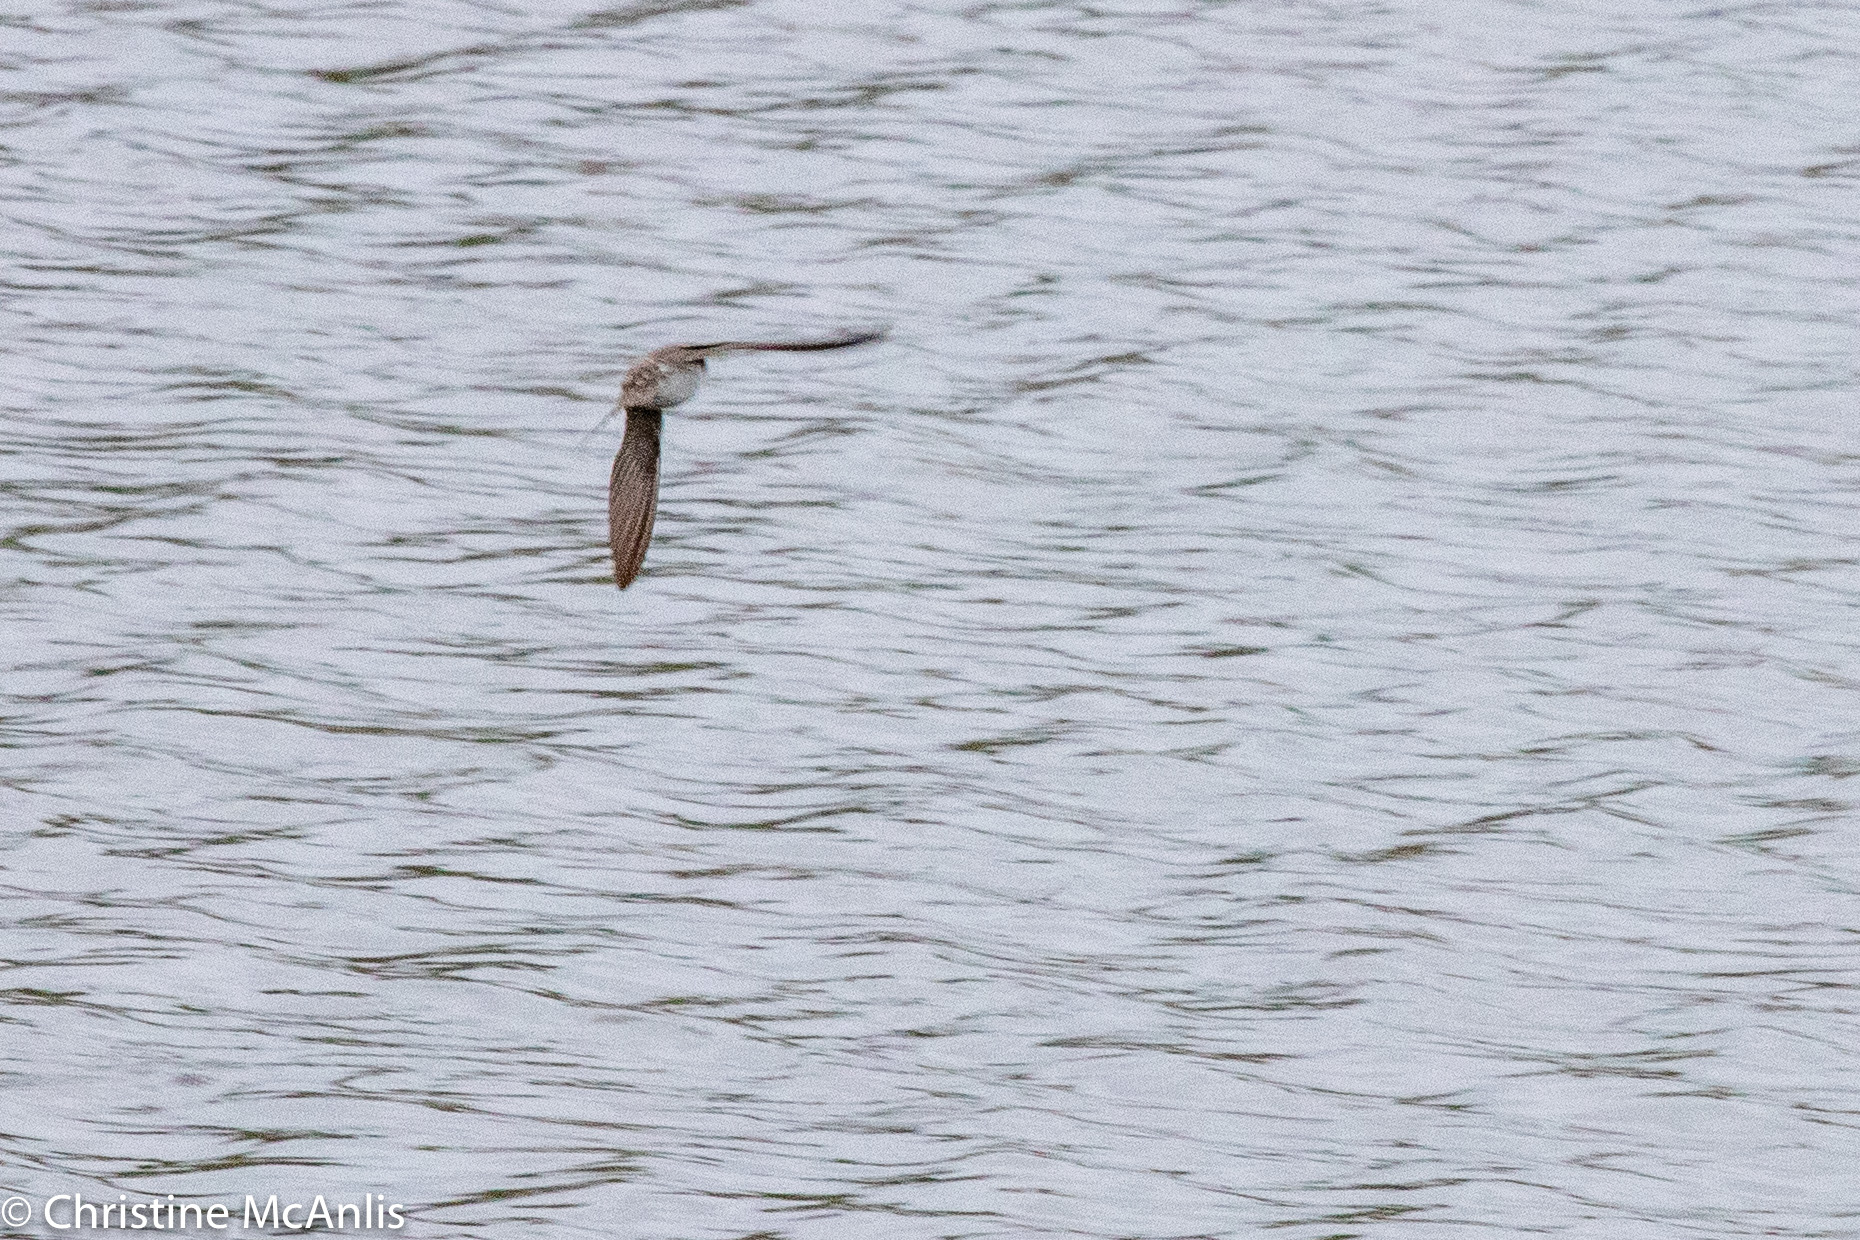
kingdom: Animalia
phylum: Chordata
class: Aves
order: Passeriformes
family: Hirundinidae
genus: Stelgidopteryx
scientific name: Stelgidopteryx serripennis
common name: Northern rough-winged swallow
